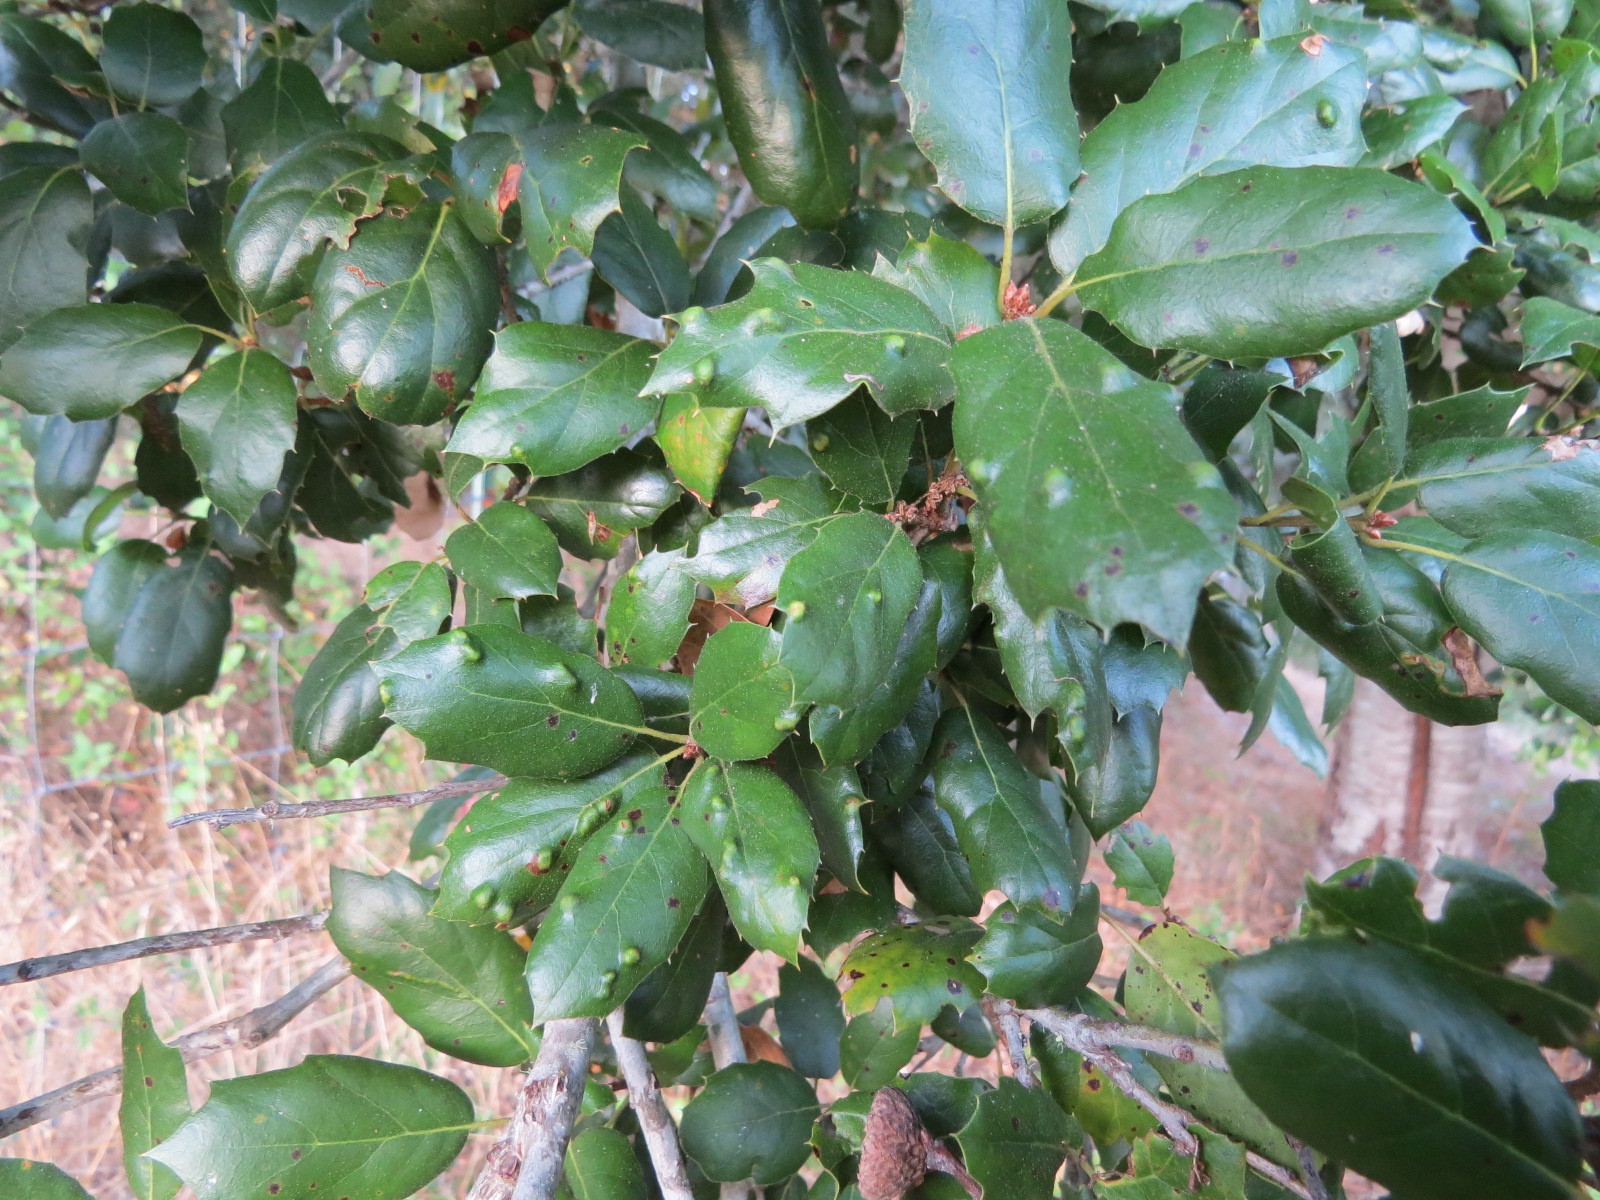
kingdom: Animalia
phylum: Arthropoda
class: Arachnida
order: Trombidiformes
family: Eriophyidae
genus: Aceria
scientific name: Aceria
